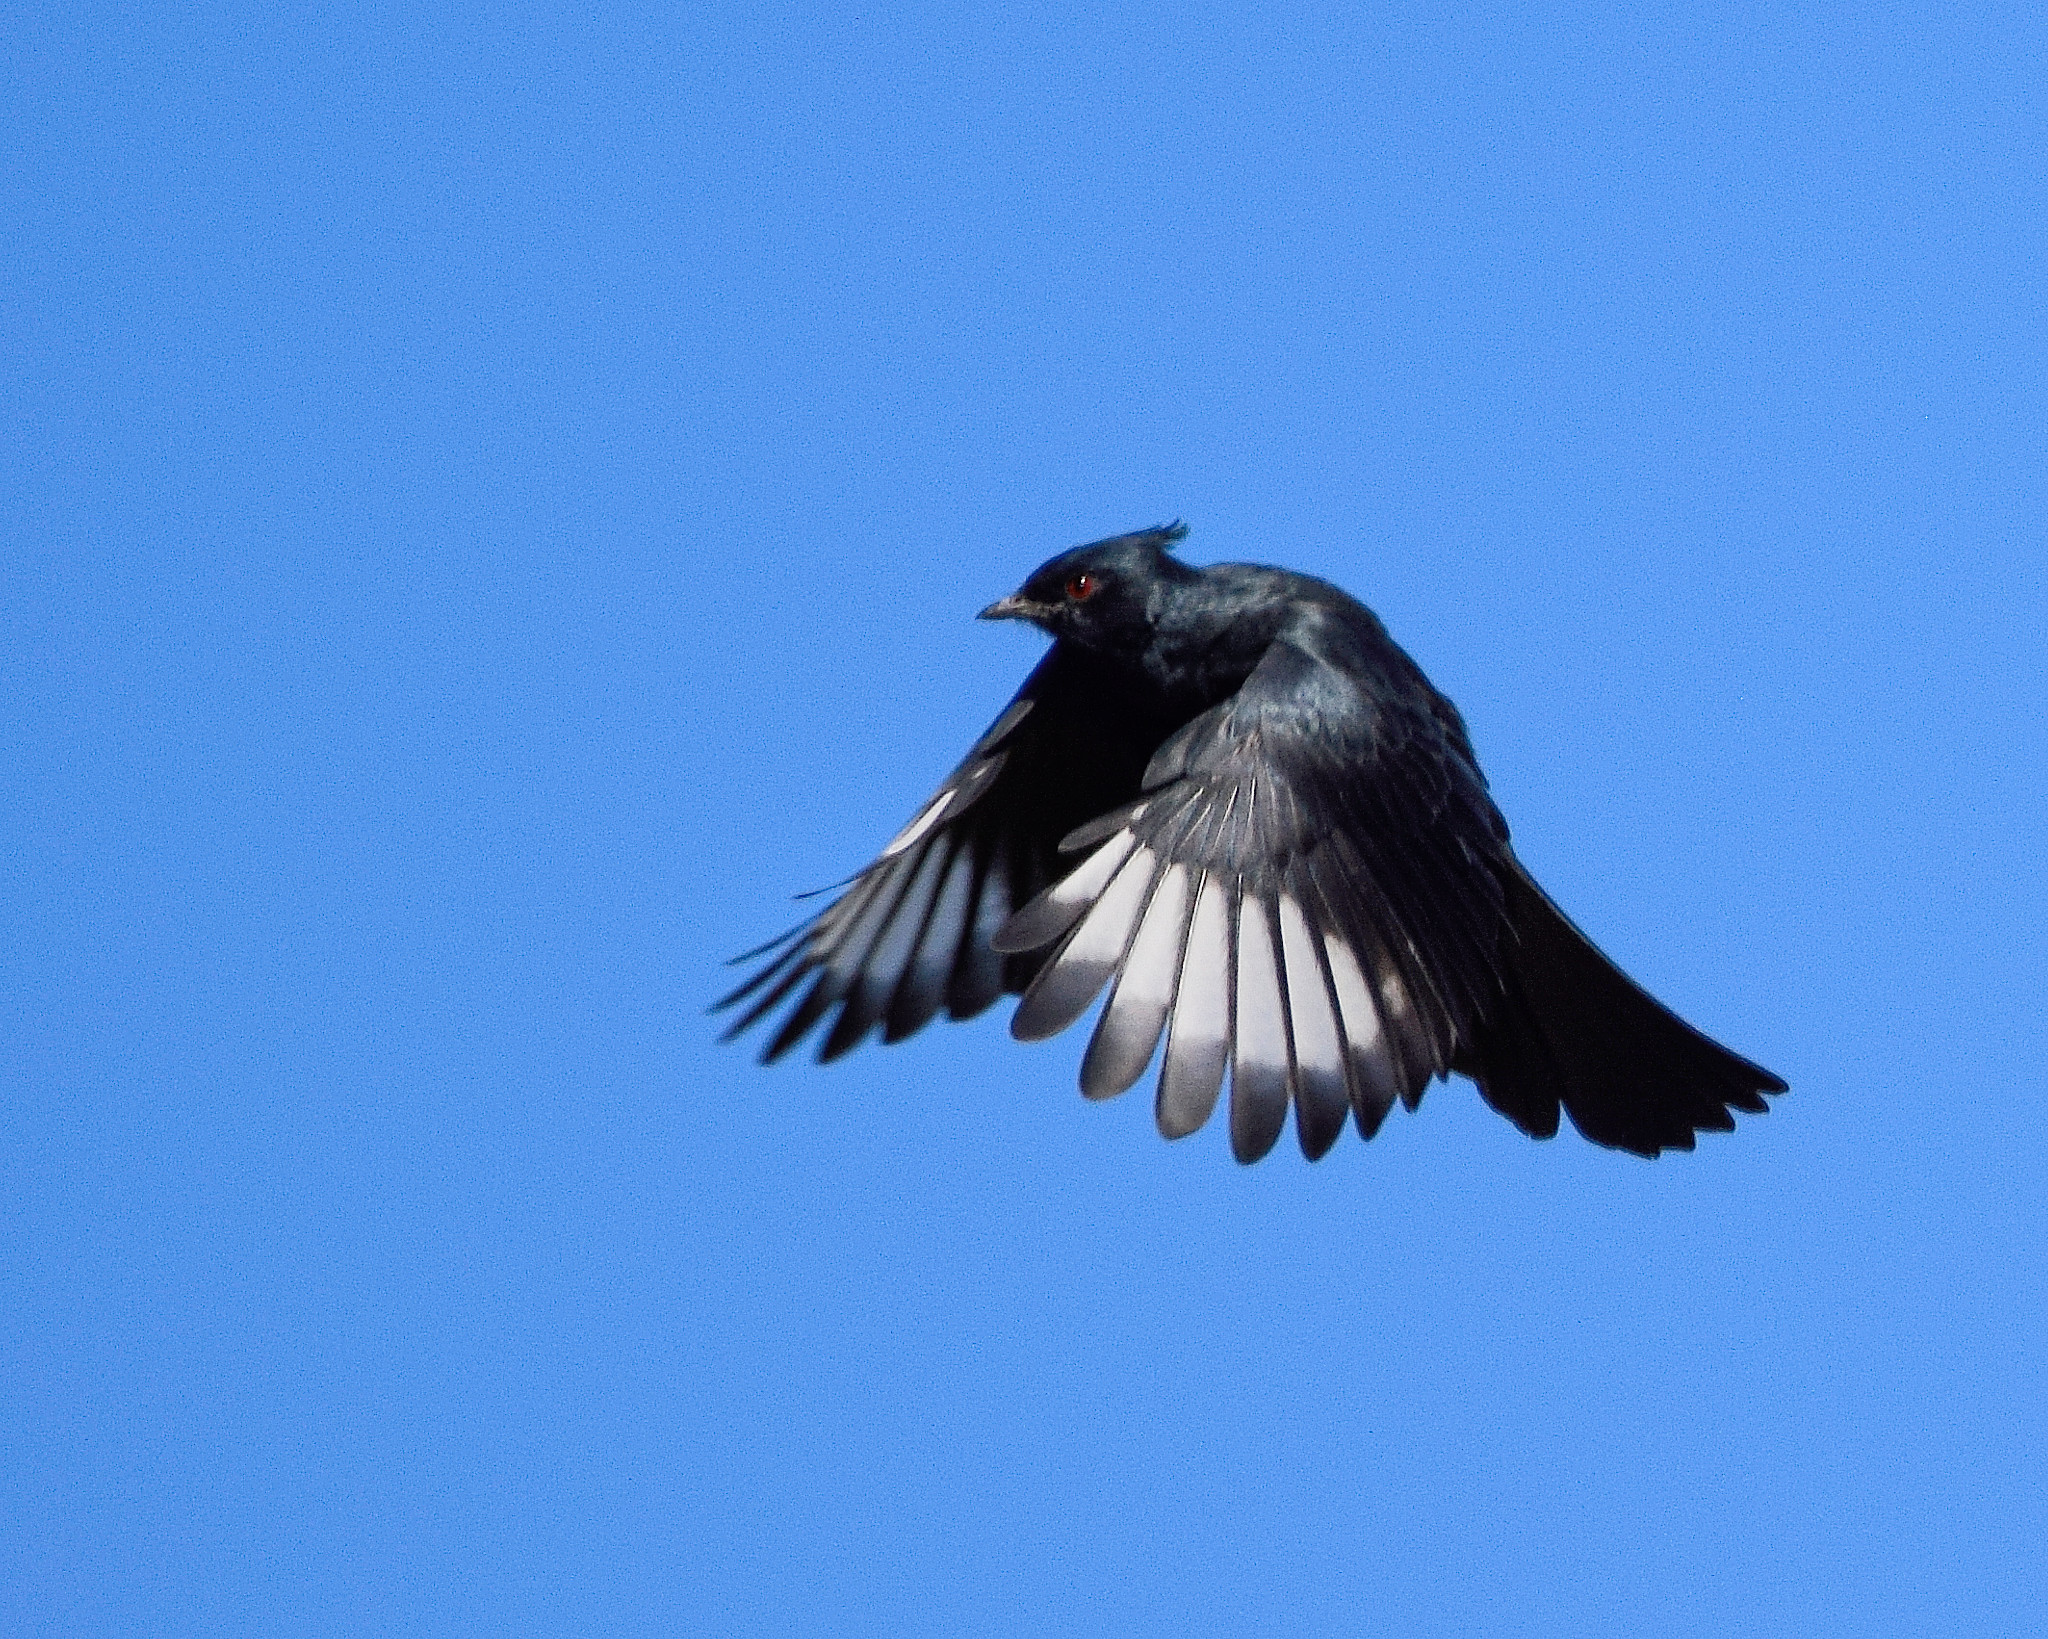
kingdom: Animalia
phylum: Chordata
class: Aves
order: Passeriformes
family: Ptilogonatidae
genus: Phainopepla
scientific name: Phainopepla nitens
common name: Phainopepla
